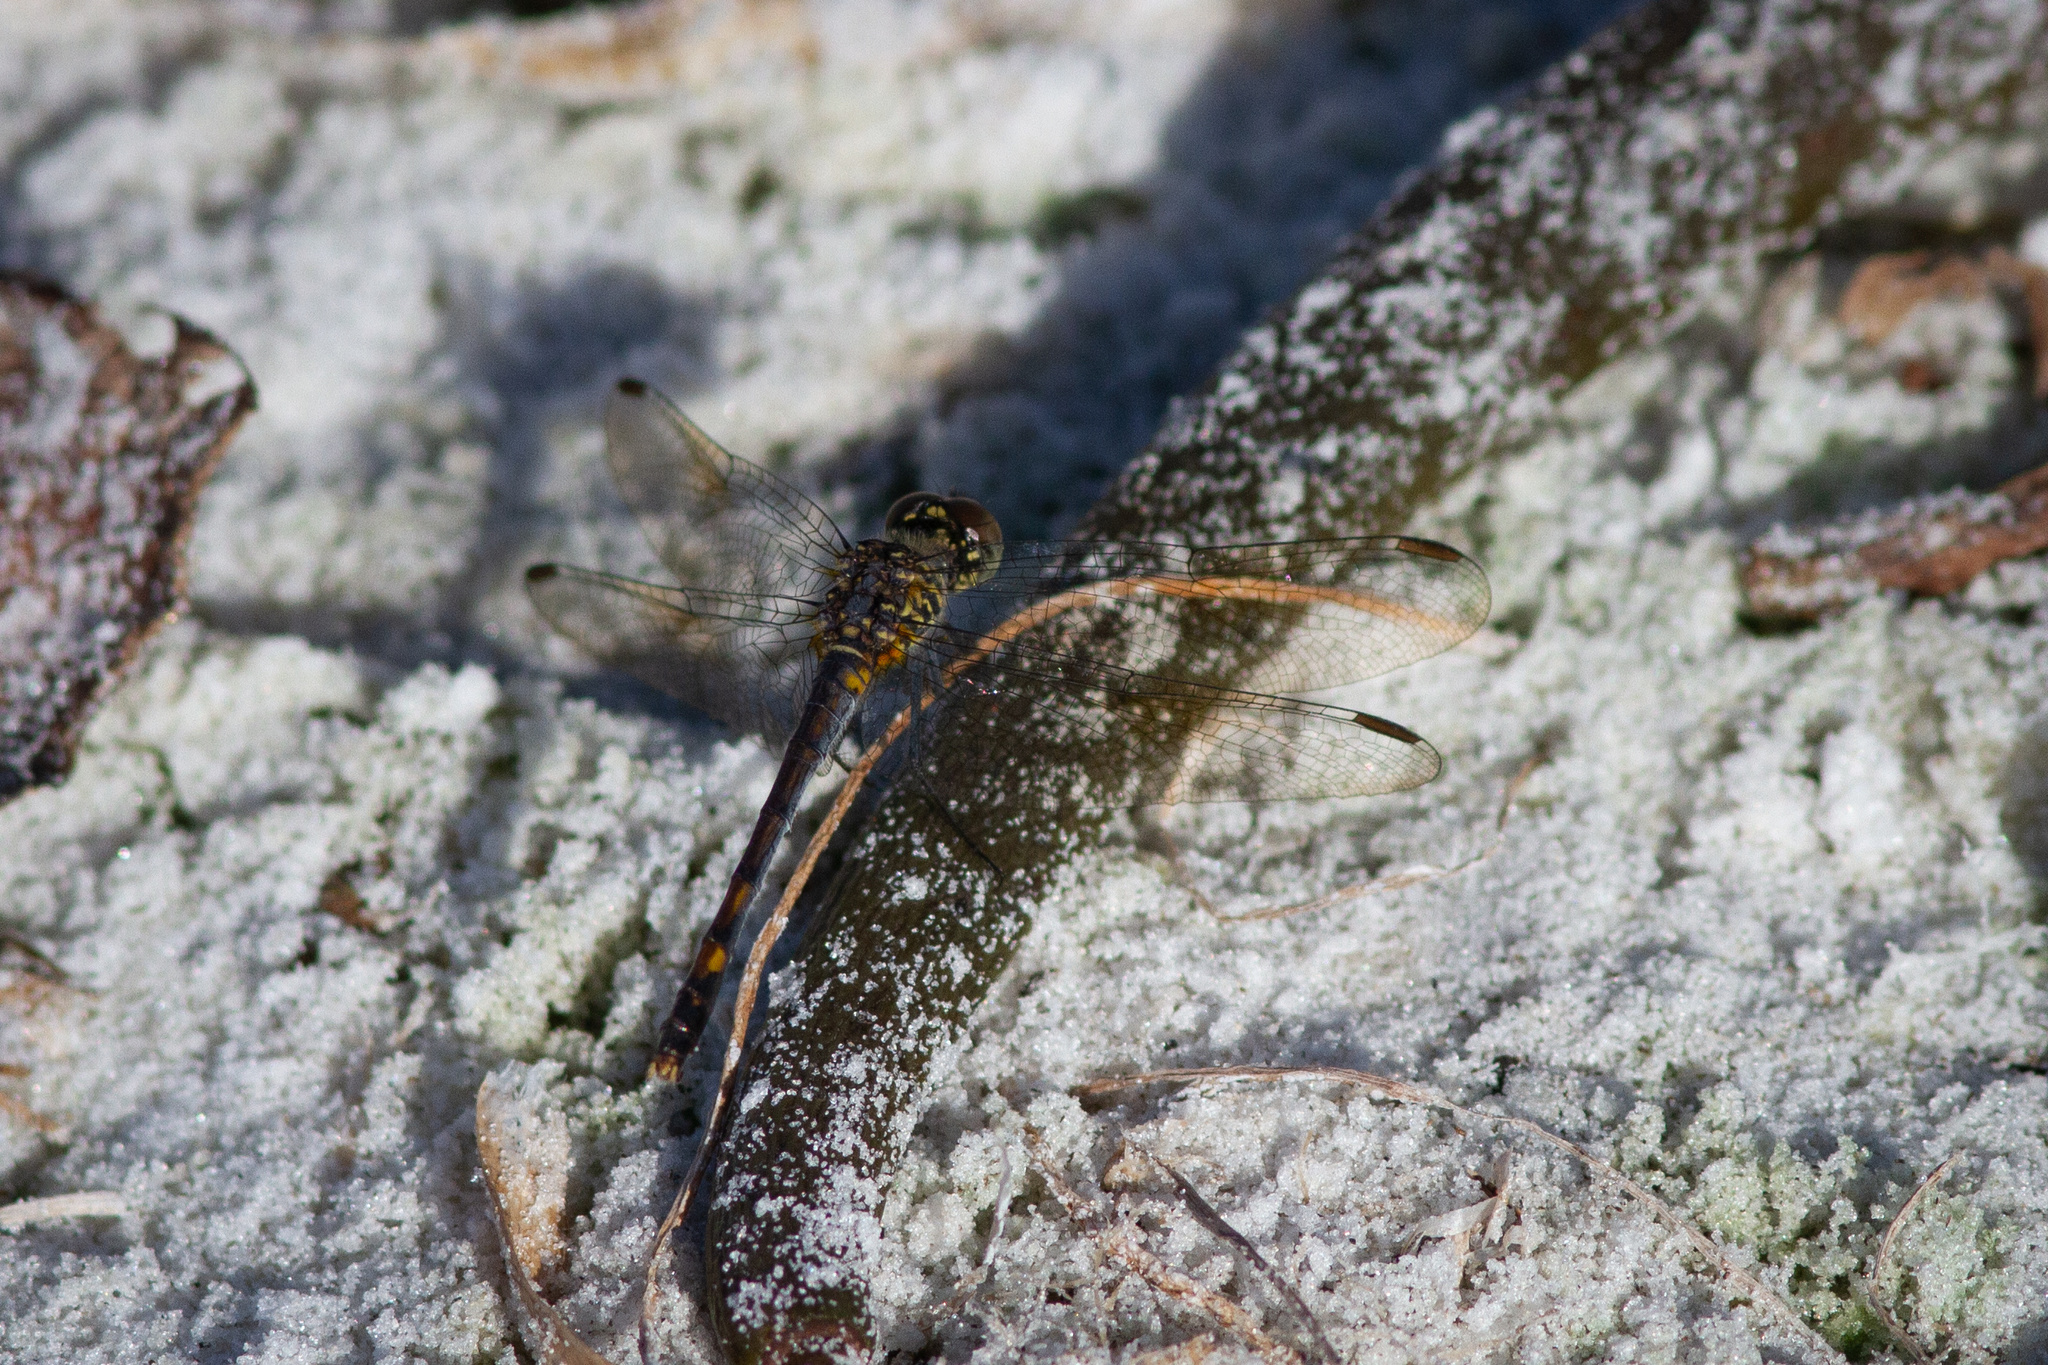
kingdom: Animalia
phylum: Arthropoda
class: Insecta
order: Odonata
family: Libellulidae
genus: Erythrodiplax
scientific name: Erythrodiplax berenice
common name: Seaside dragonlet
